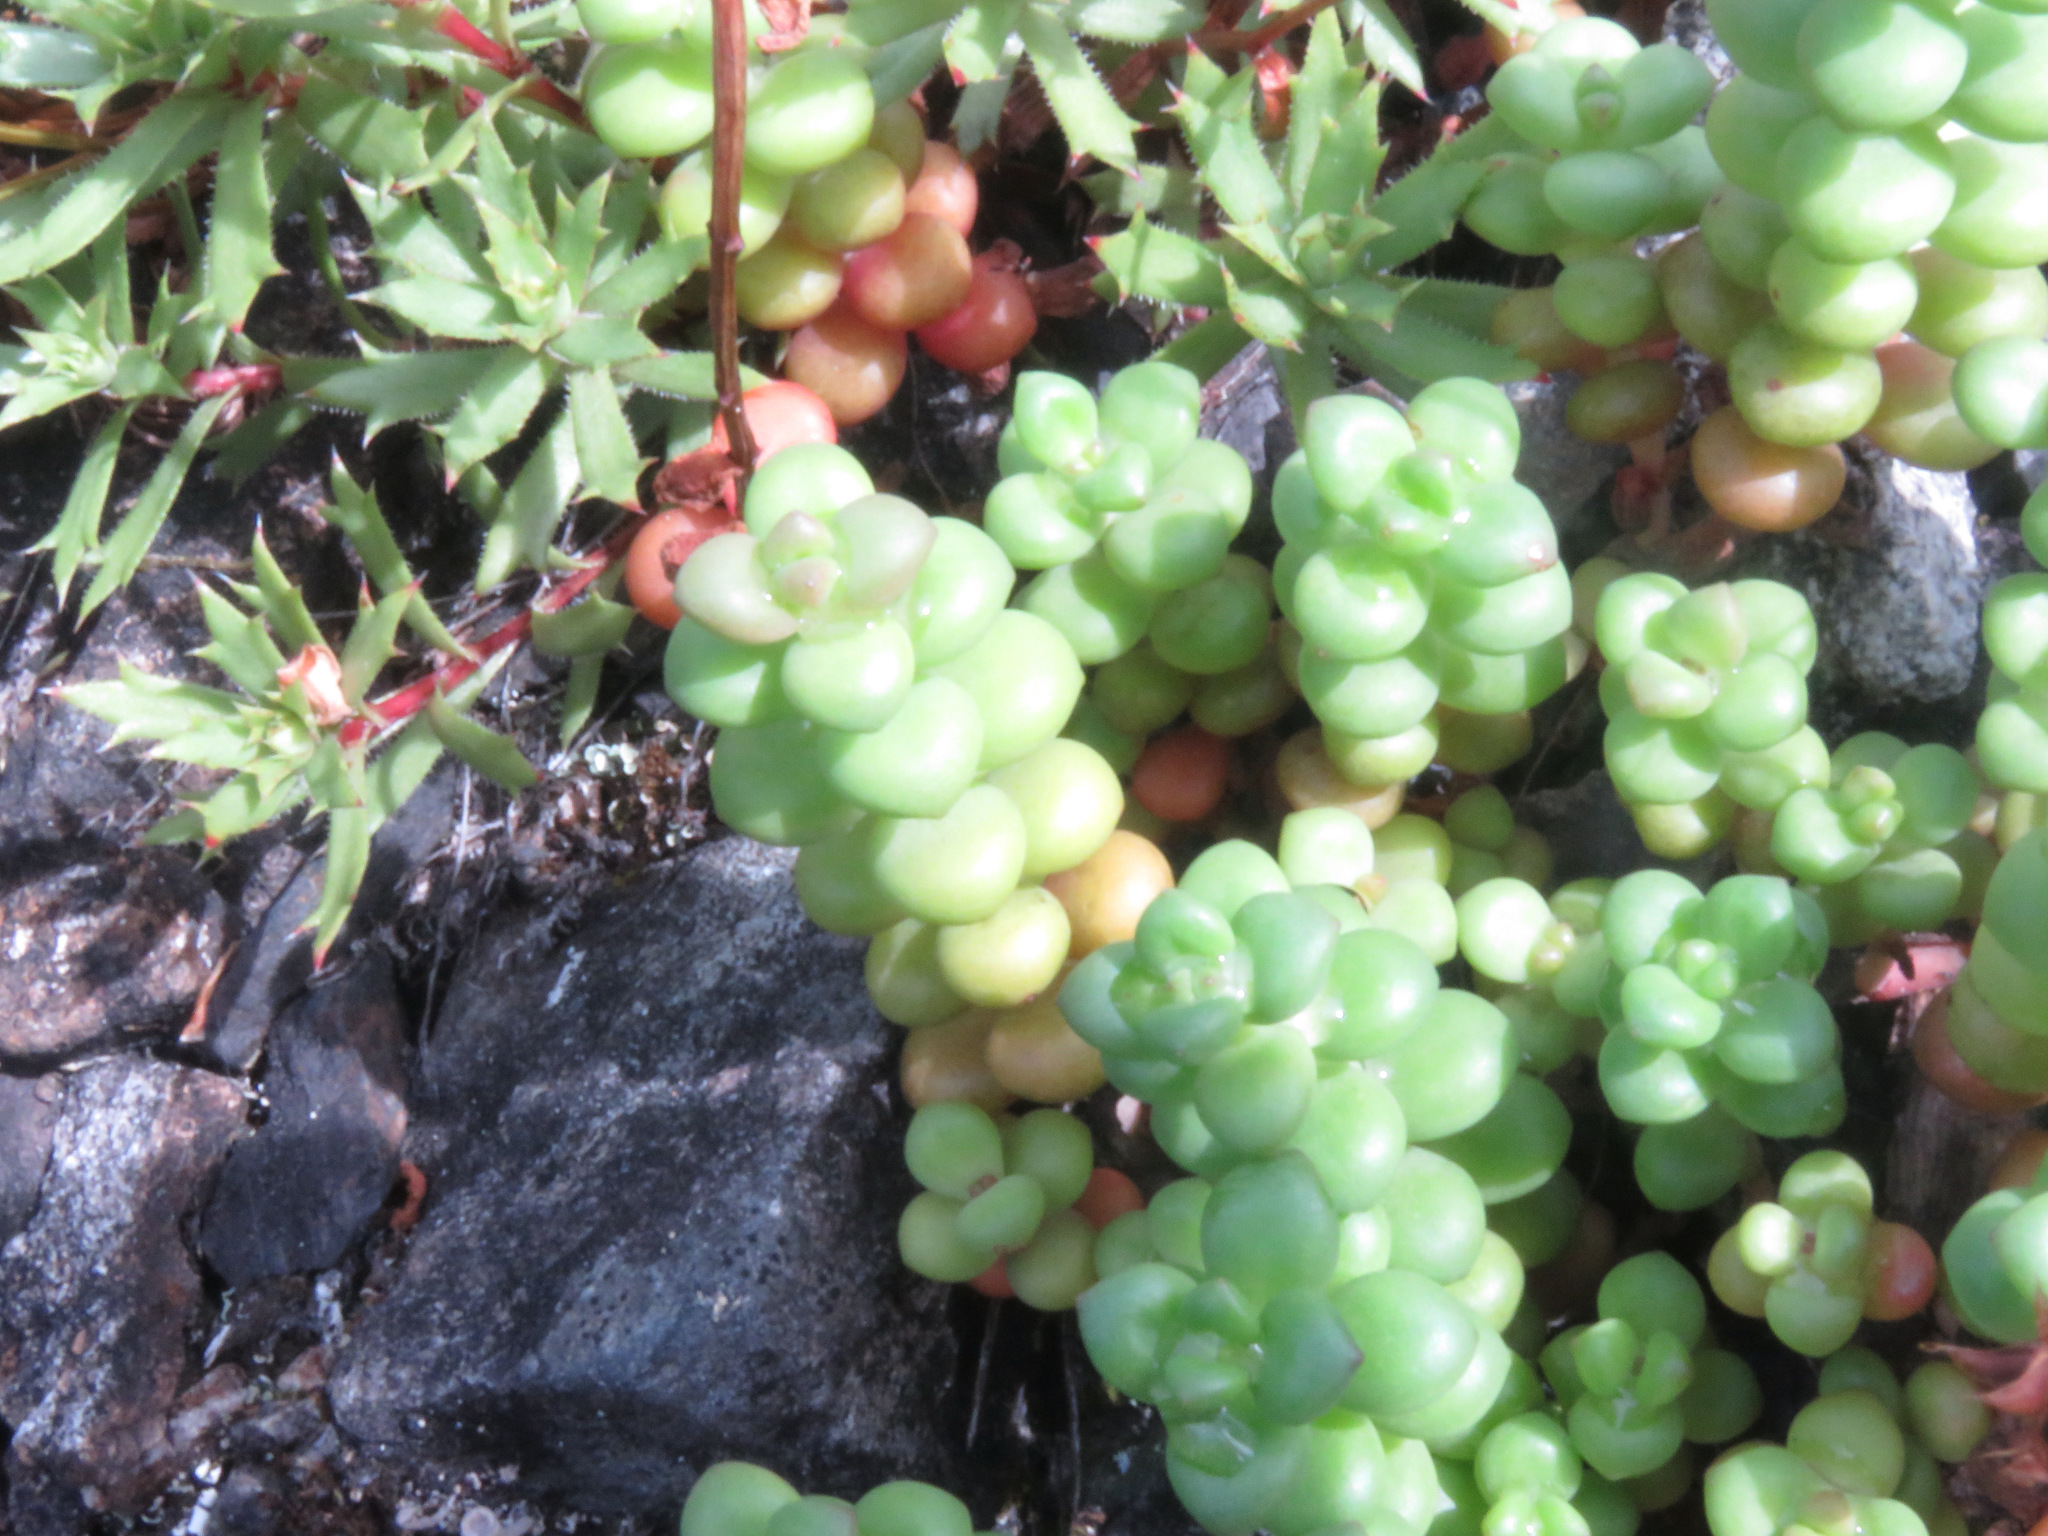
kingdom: Plantae
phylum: Tracheophyta
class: Magnoliopsida
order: Saxifragales
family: Crassulaceae
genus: Sedum
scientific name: Sedum divergens
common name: Cascade stonecrop
